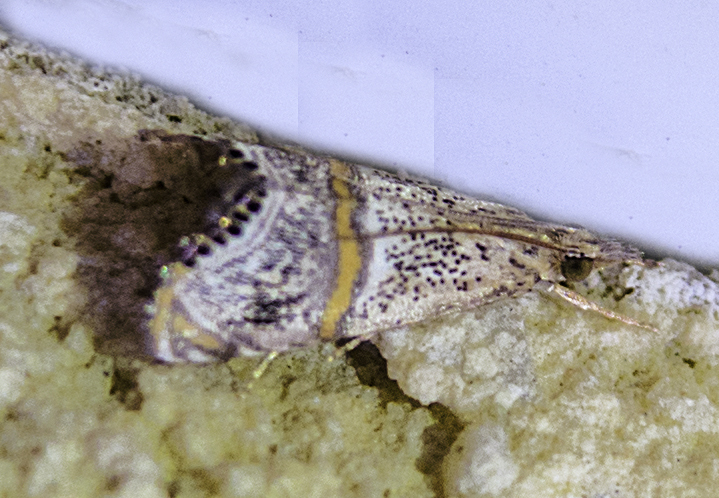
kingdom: Animalia
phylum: Arthropoda
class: Insecta
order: Lepidoptera
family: Crambidae
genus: Euchromius
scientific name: Euchromius superbella
